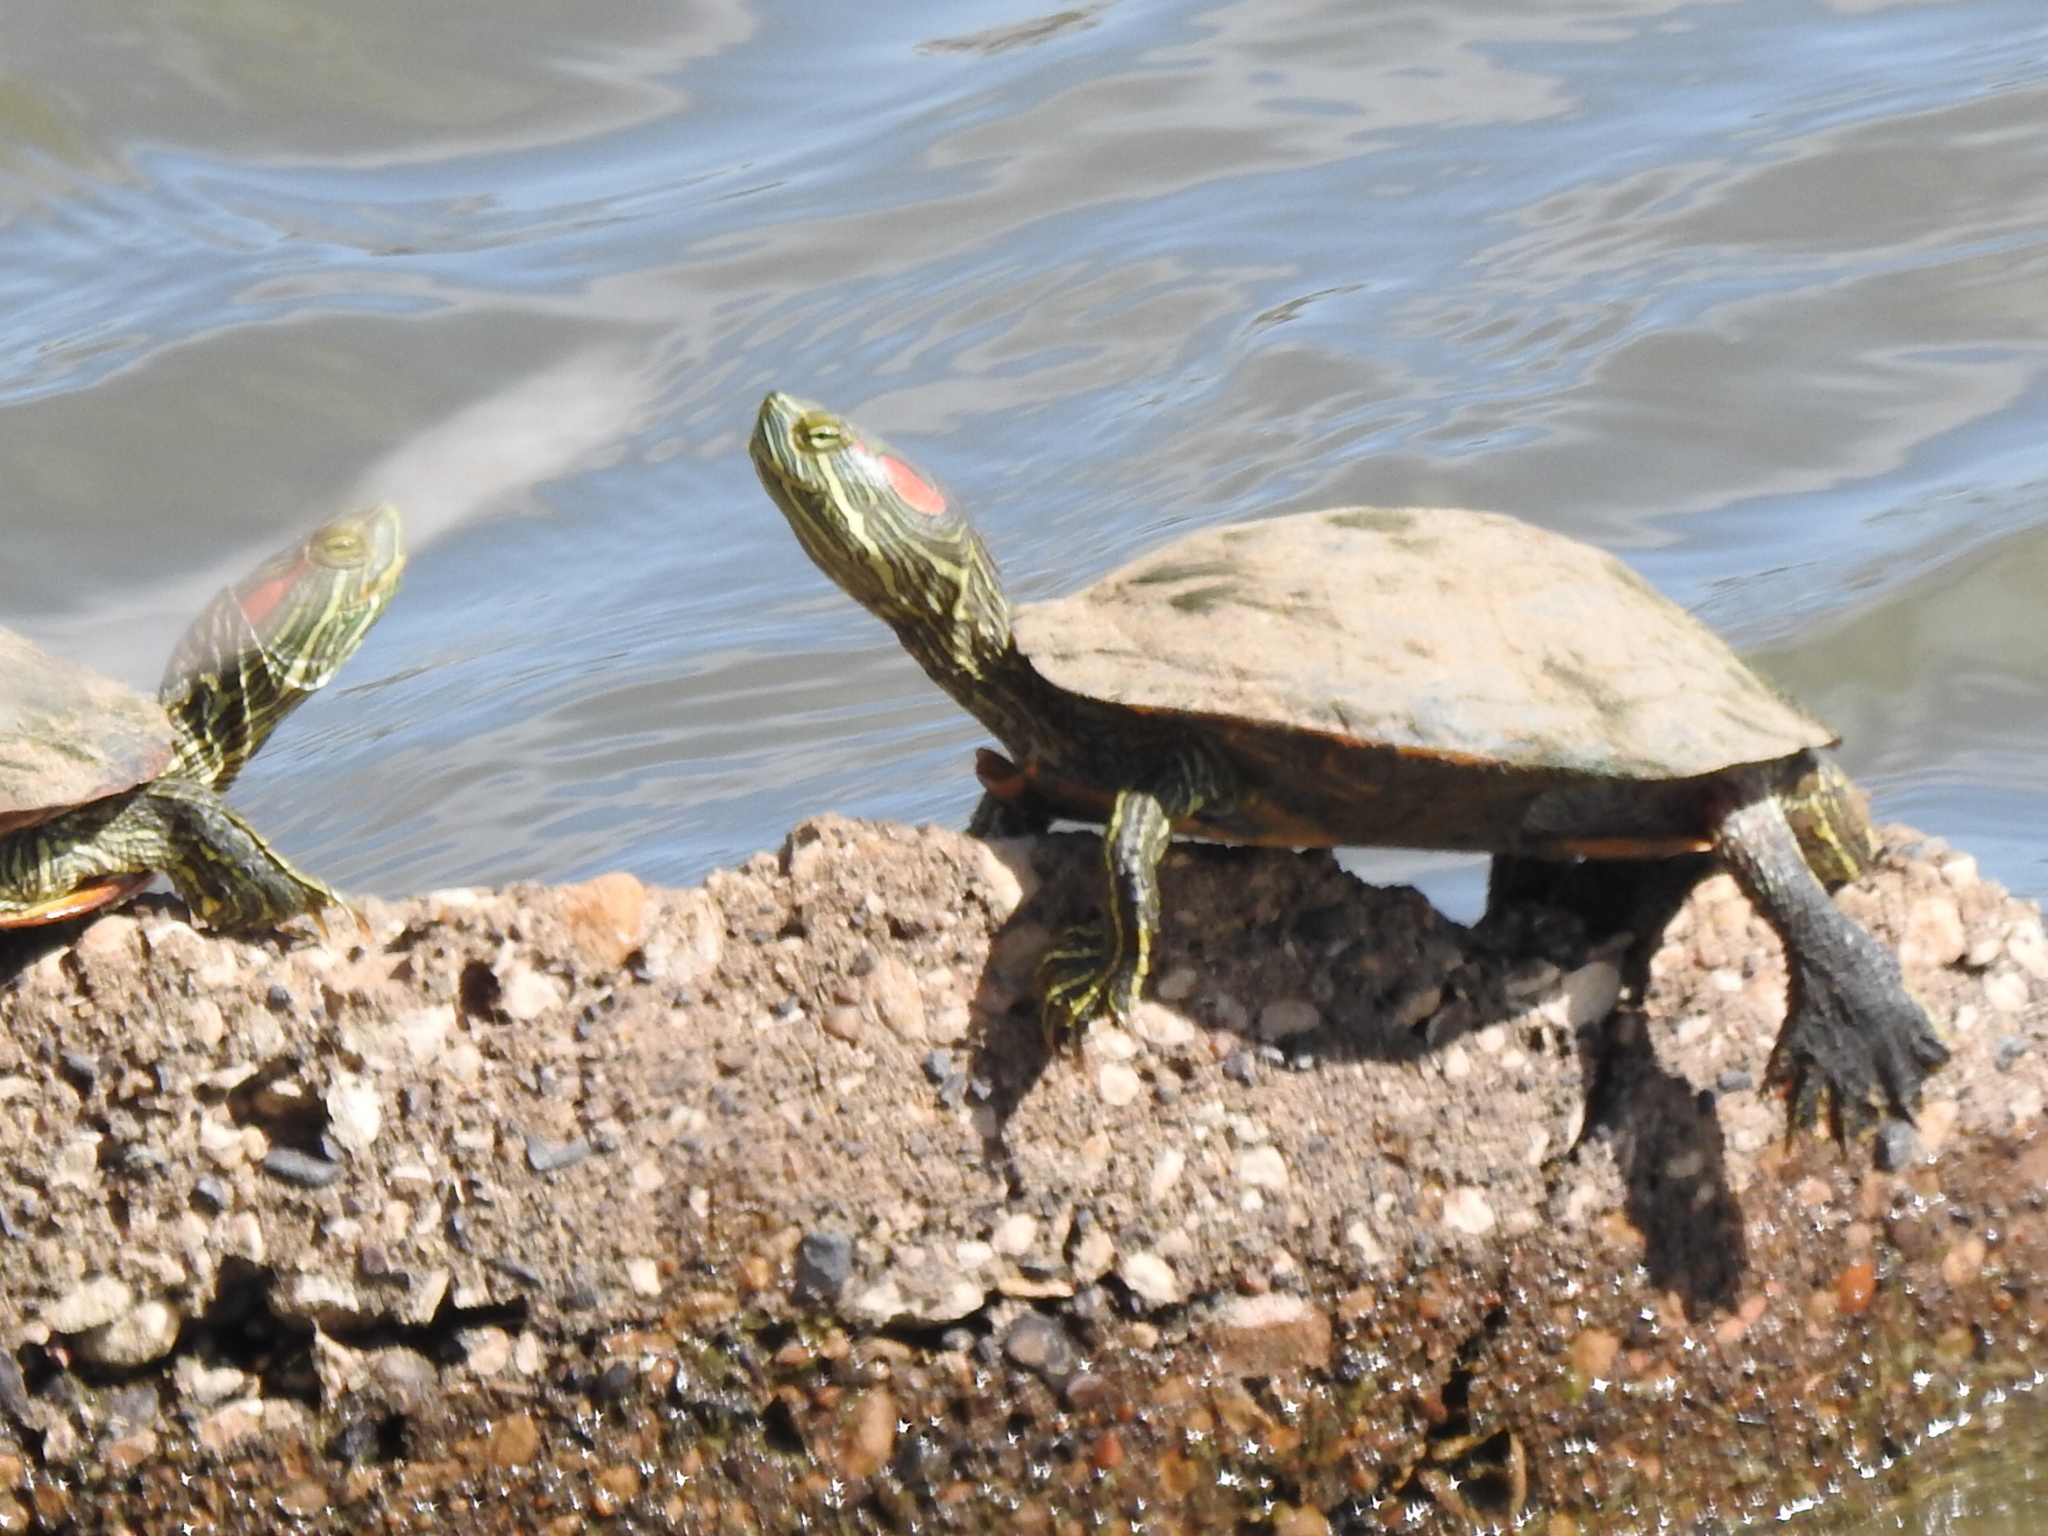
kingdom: Animalia
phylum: Chordata
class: Testudines
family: Emydidae
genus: Trachemys
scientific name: Trachemys scripta
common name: Slider
